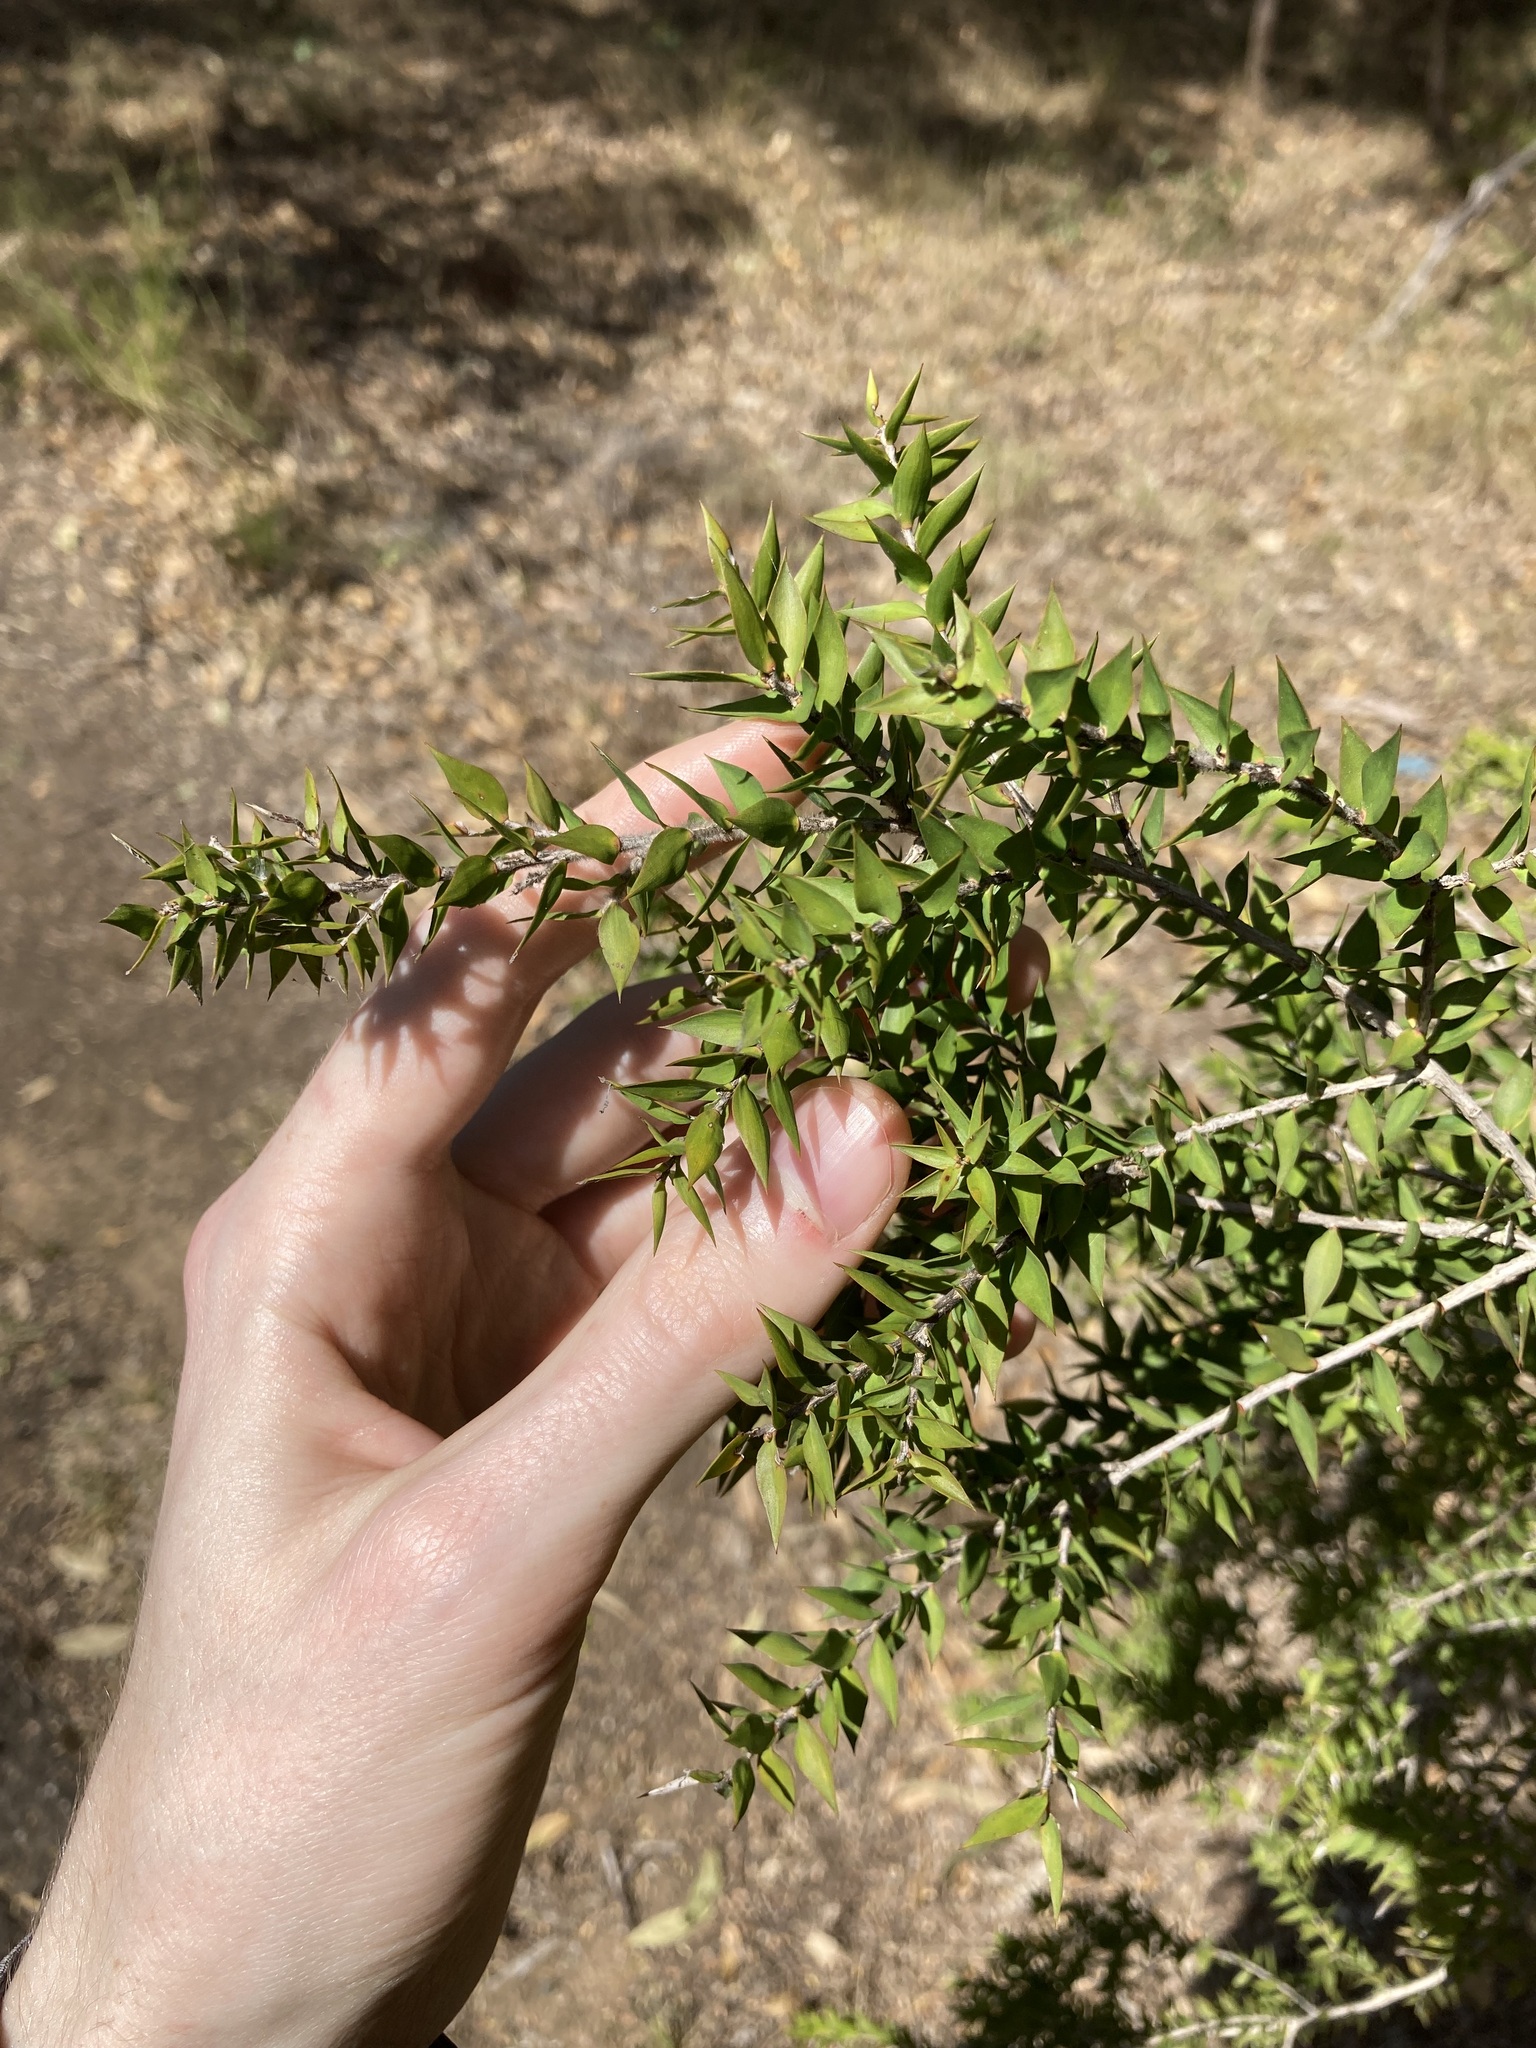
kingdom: Plantae
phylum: Tracheophyta
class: Magnoliopsida
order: Myrtales
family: Myrtaceae
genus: Melaleuca
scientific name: Melaleuca styphelioides
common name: Prickly paperbark
